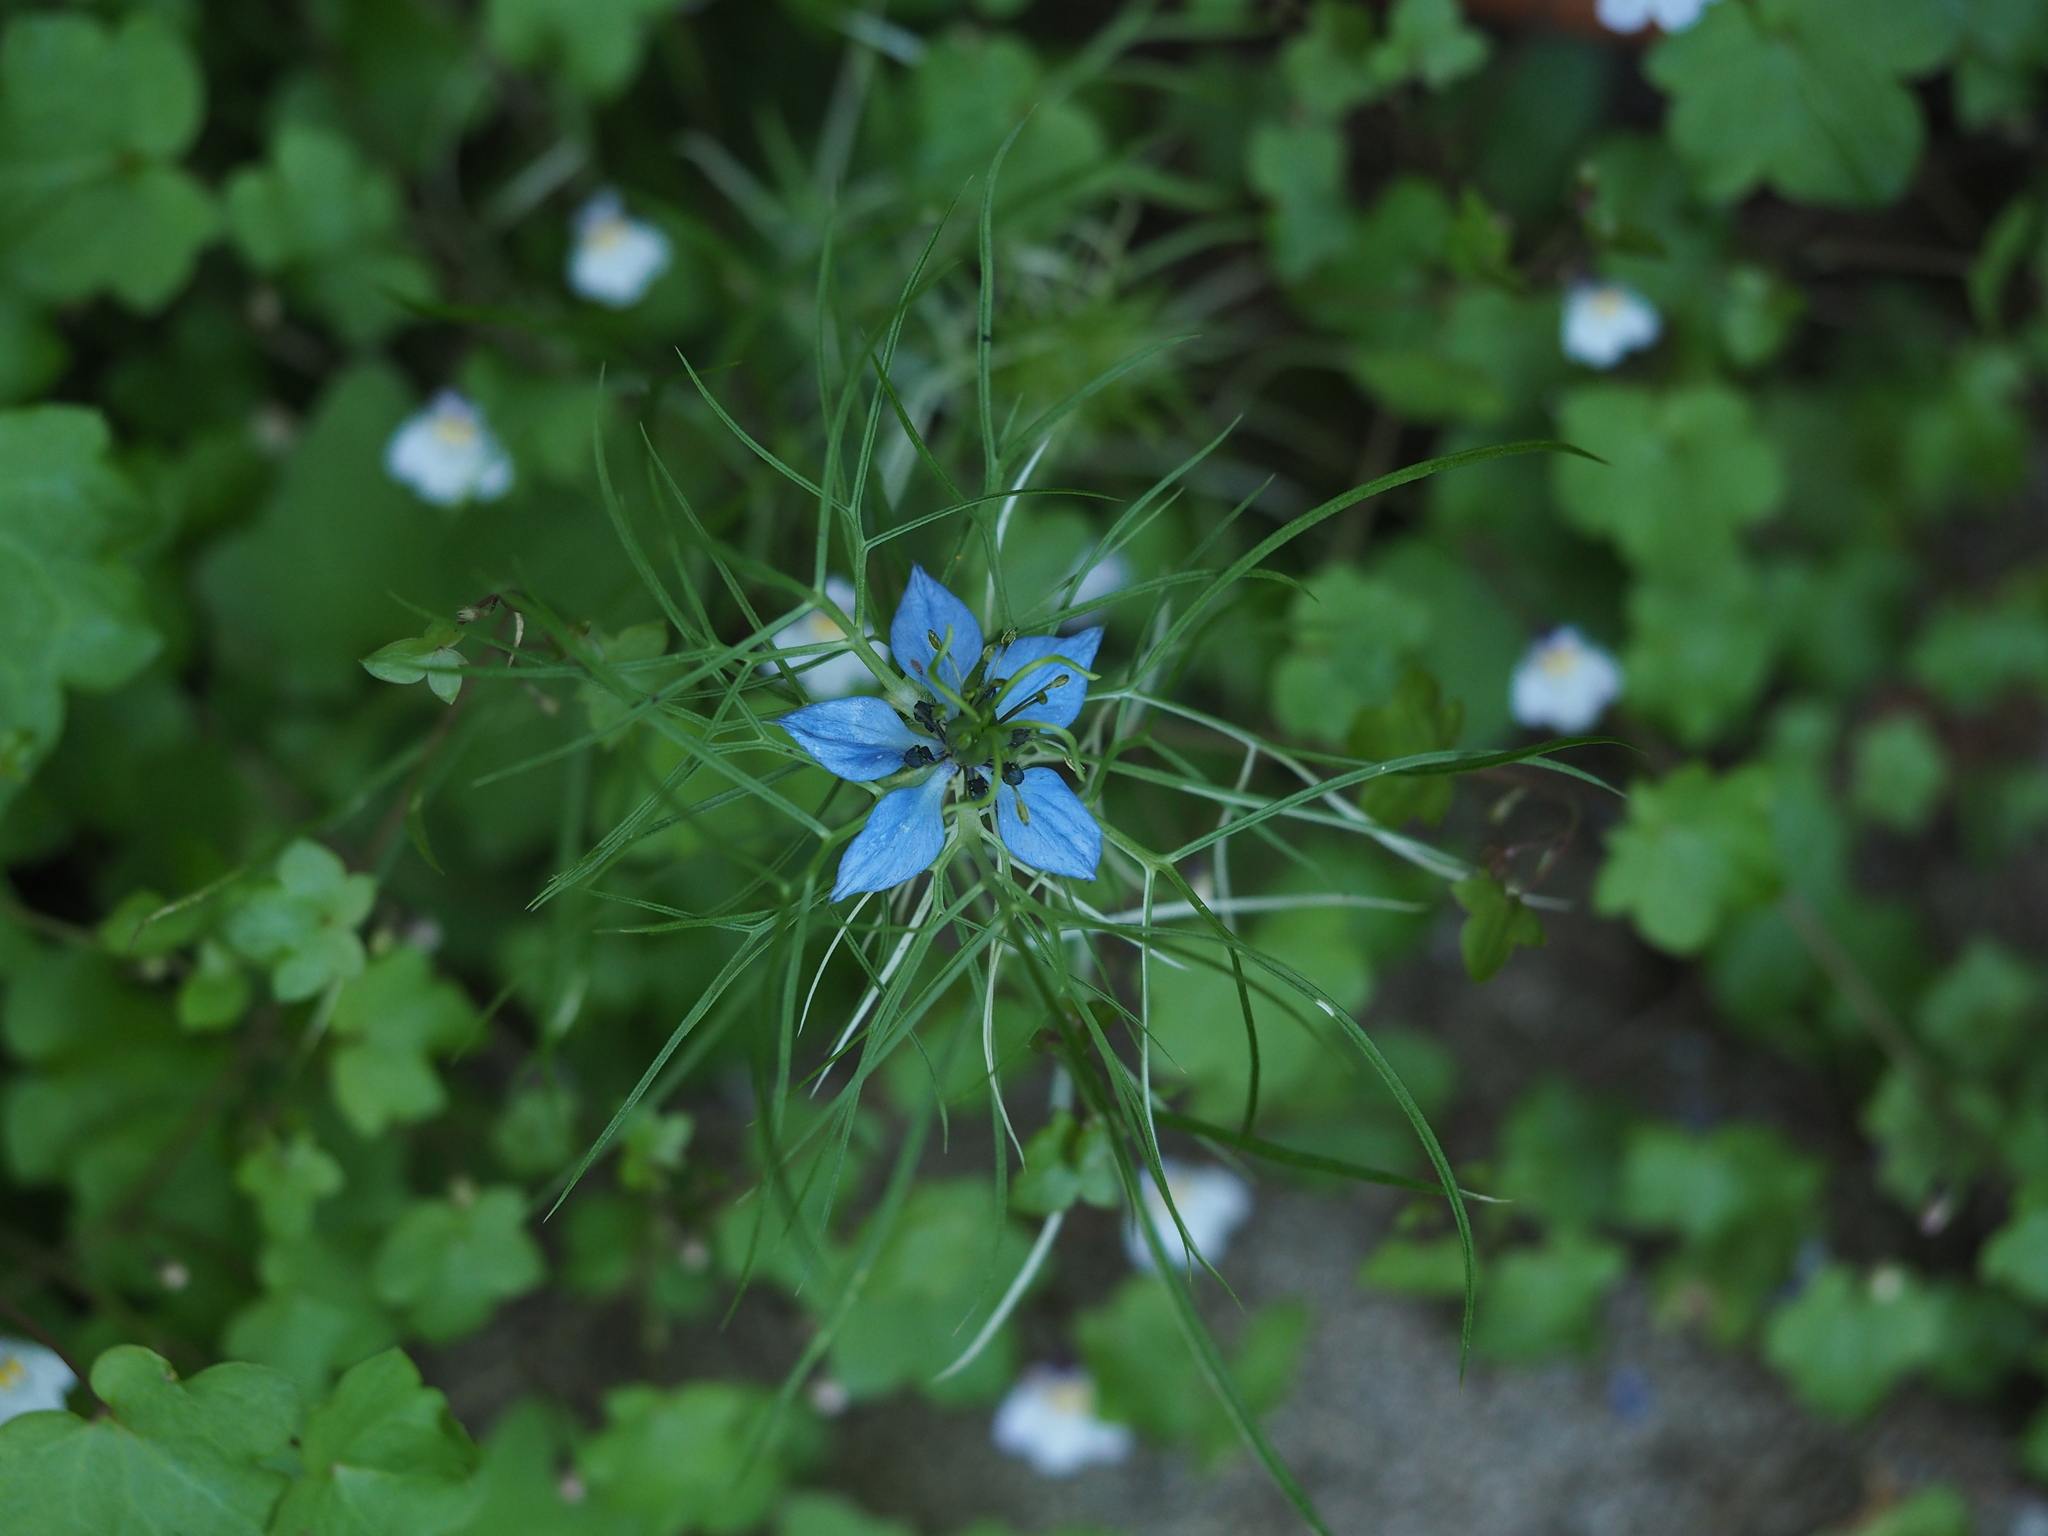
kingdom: Plantae
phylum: Tracheophyta
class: Magnoliopsida
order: Ranunculales
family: Ranunculaceae
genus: Nigella
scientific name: Nigella damascena
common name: Love-in-a-mist
